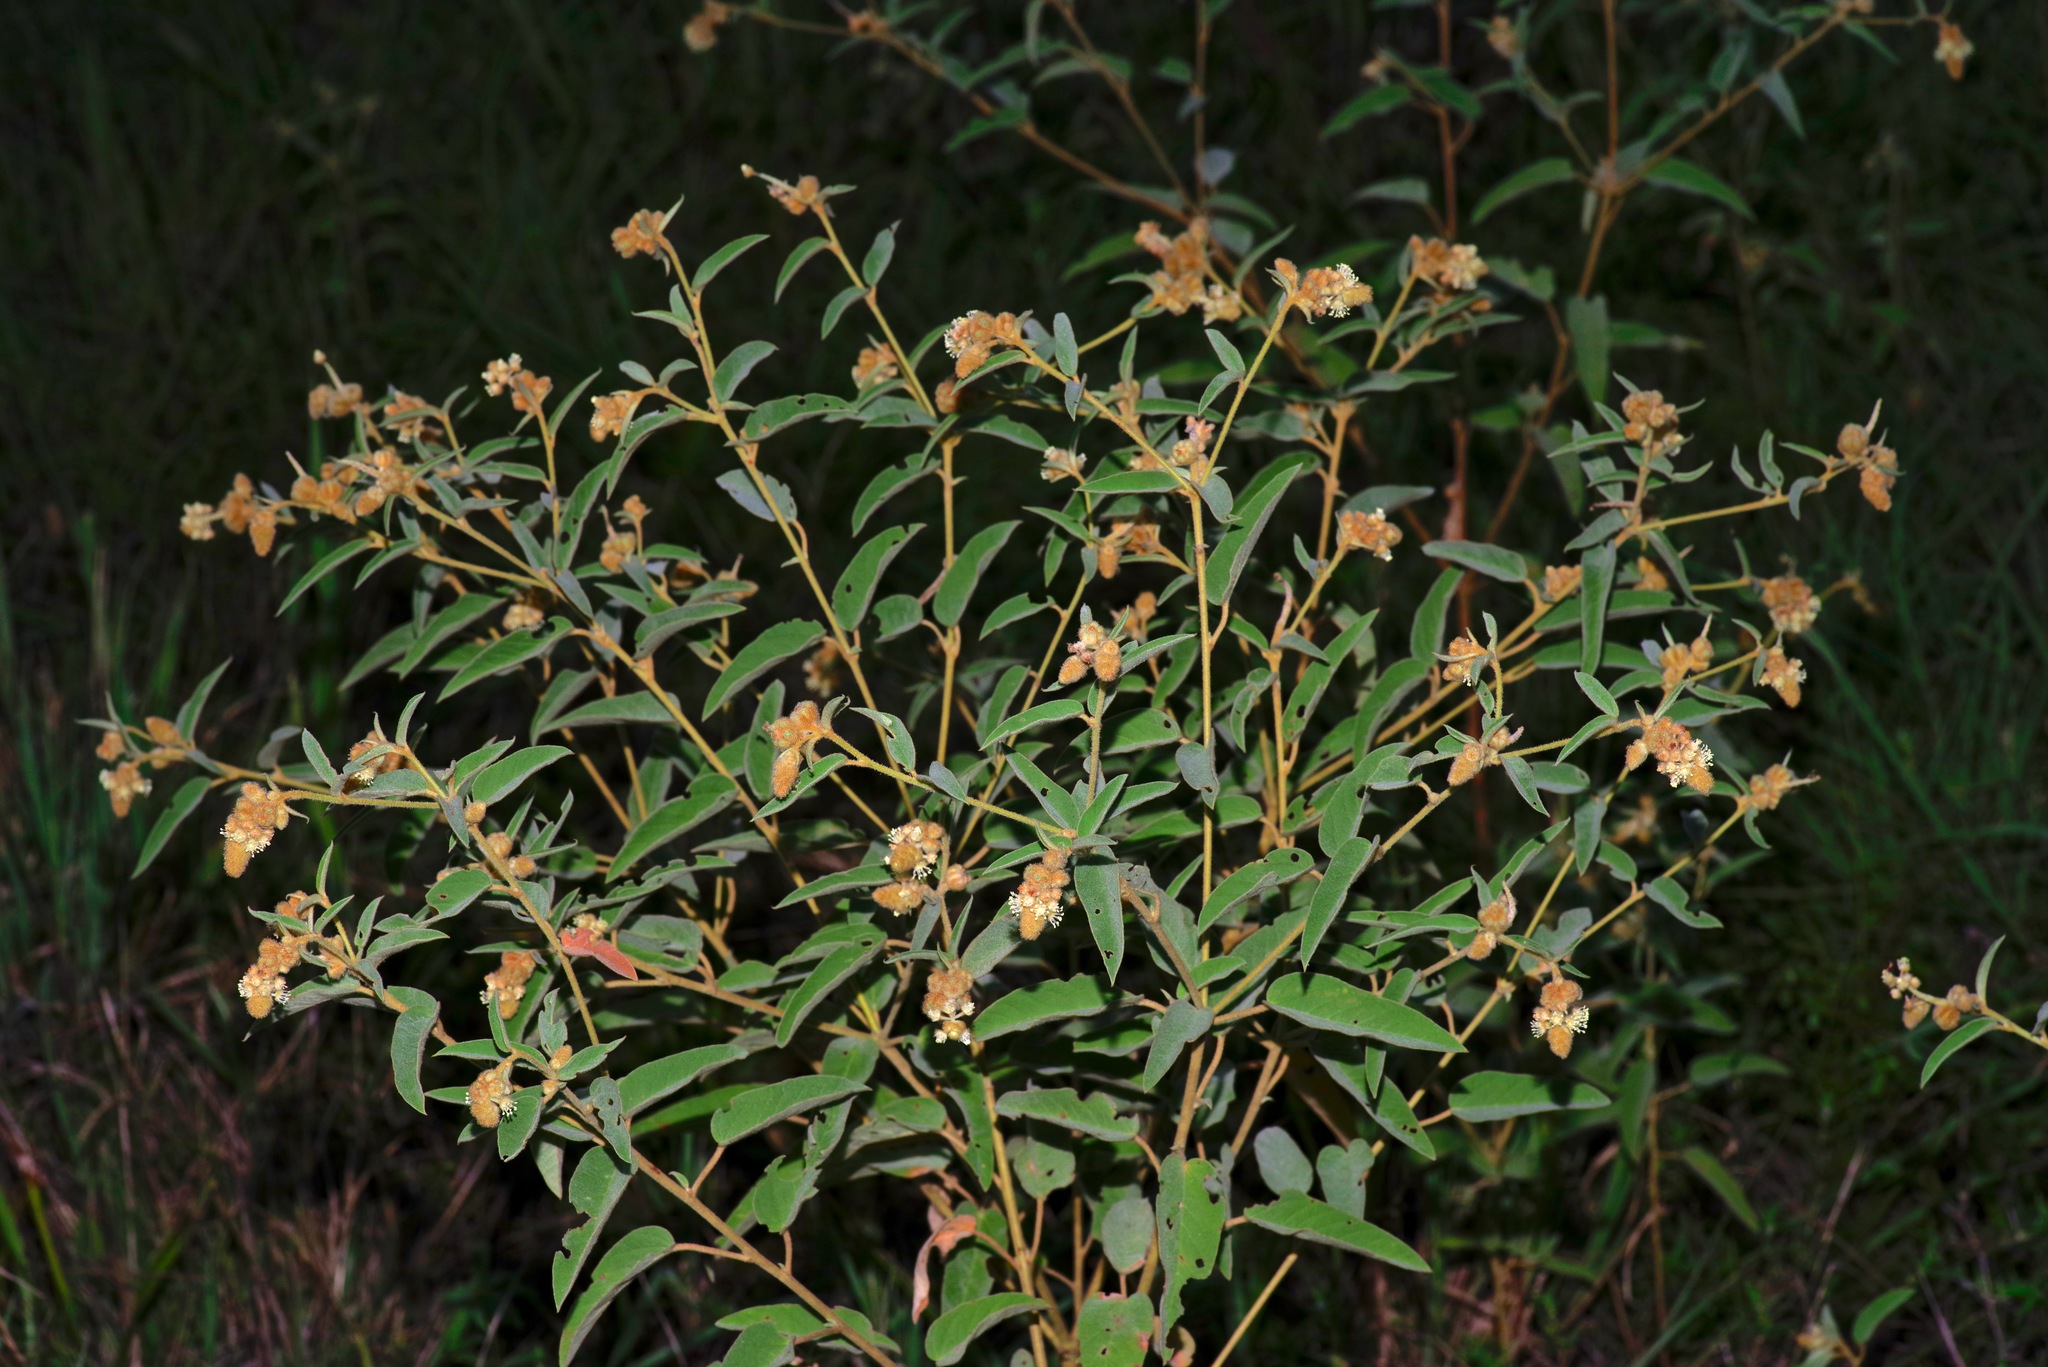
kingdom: Plantae
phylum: Tracheophyta
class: Magnoliopsida
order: Malpighiales
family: Euphorbiaceae
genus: Croton
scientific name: Croton lindheimeri
